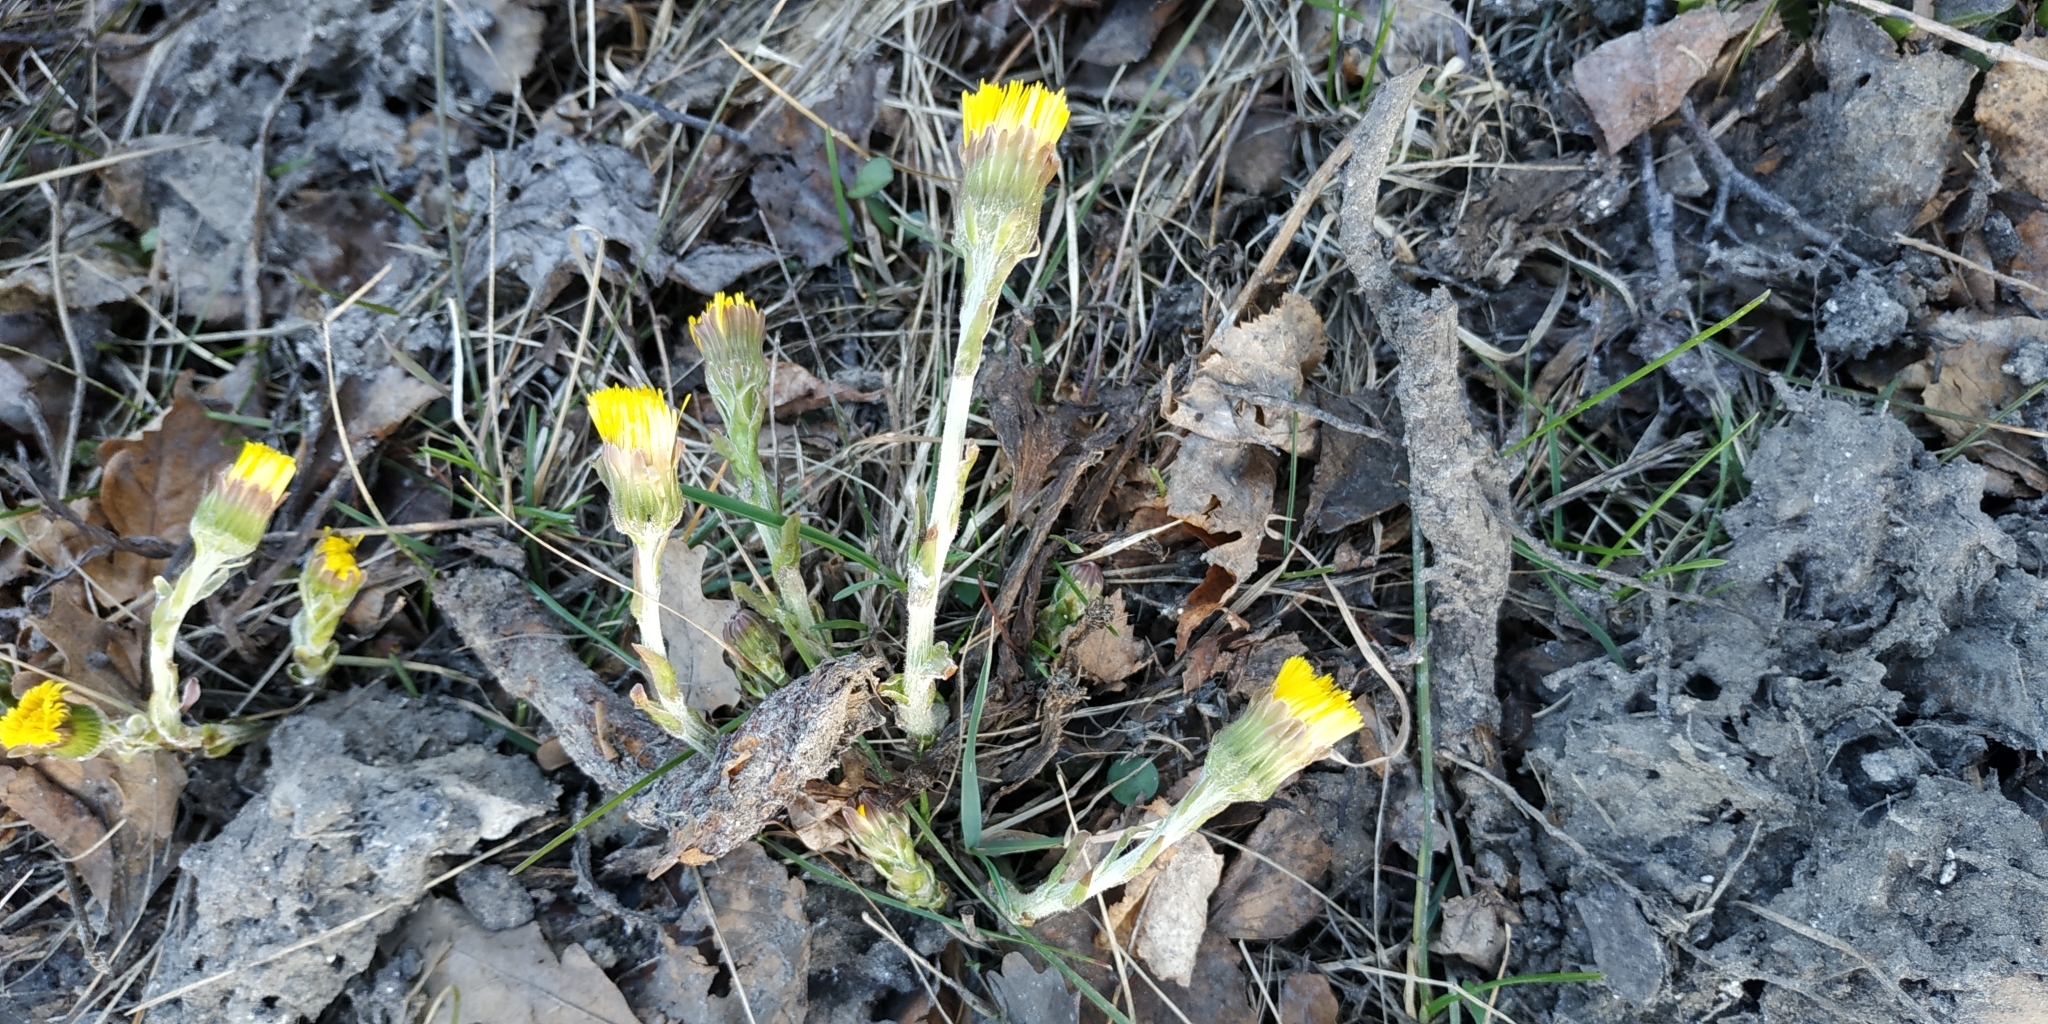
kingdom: Plantae
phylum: Tracheophyta
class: Magnoliopsida
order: Asterales
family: Asteraceae
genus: Tussilago
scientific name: Tussilago farfara
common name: Coltsfoot
